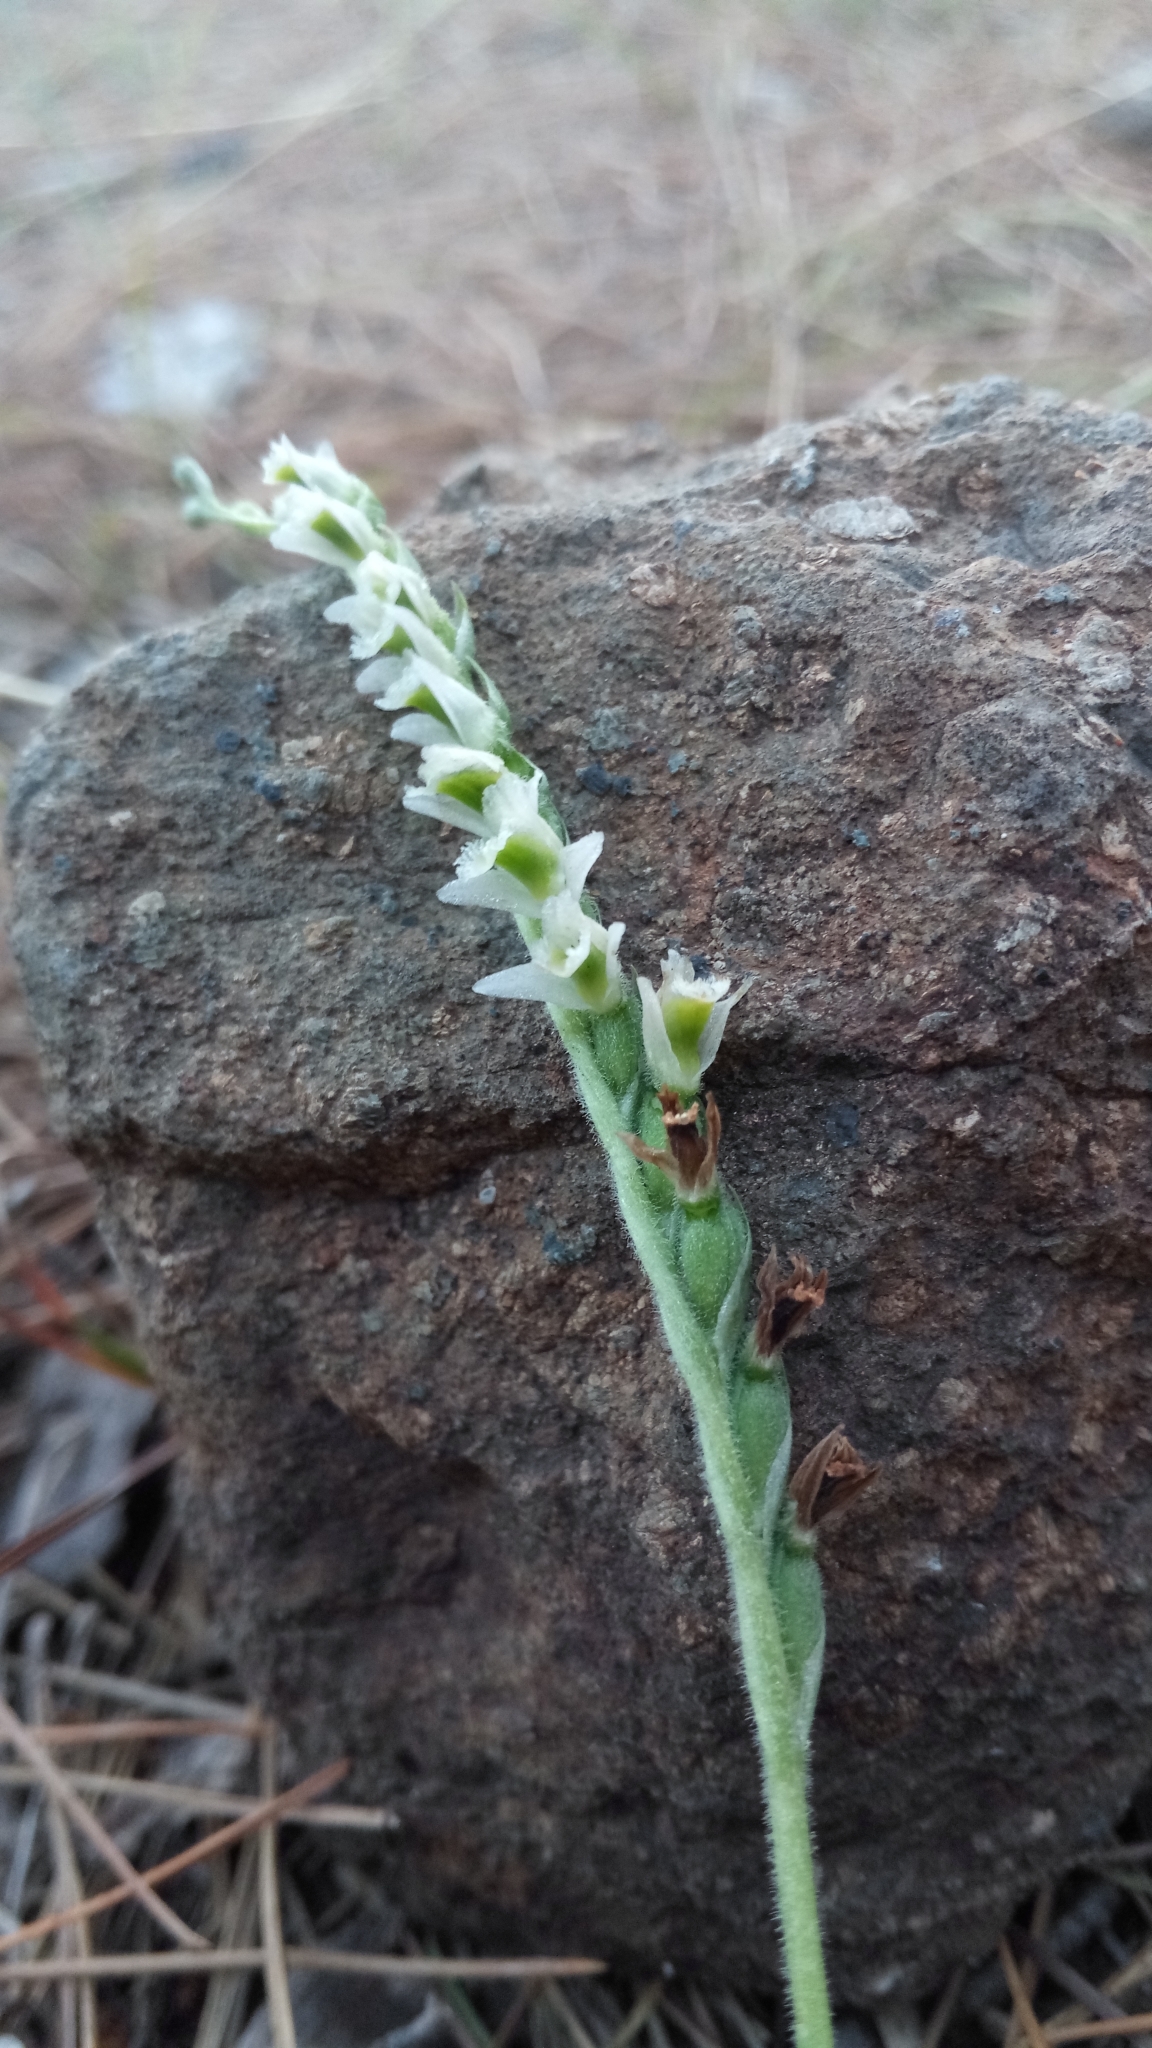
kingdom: Plantae
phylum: Tracheophyta
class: Liliopsida
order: Asparagales
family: Orchidaceae
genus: Spiranthes
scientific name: Spiranthes spiralis
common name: Autumn lady's-tresses
